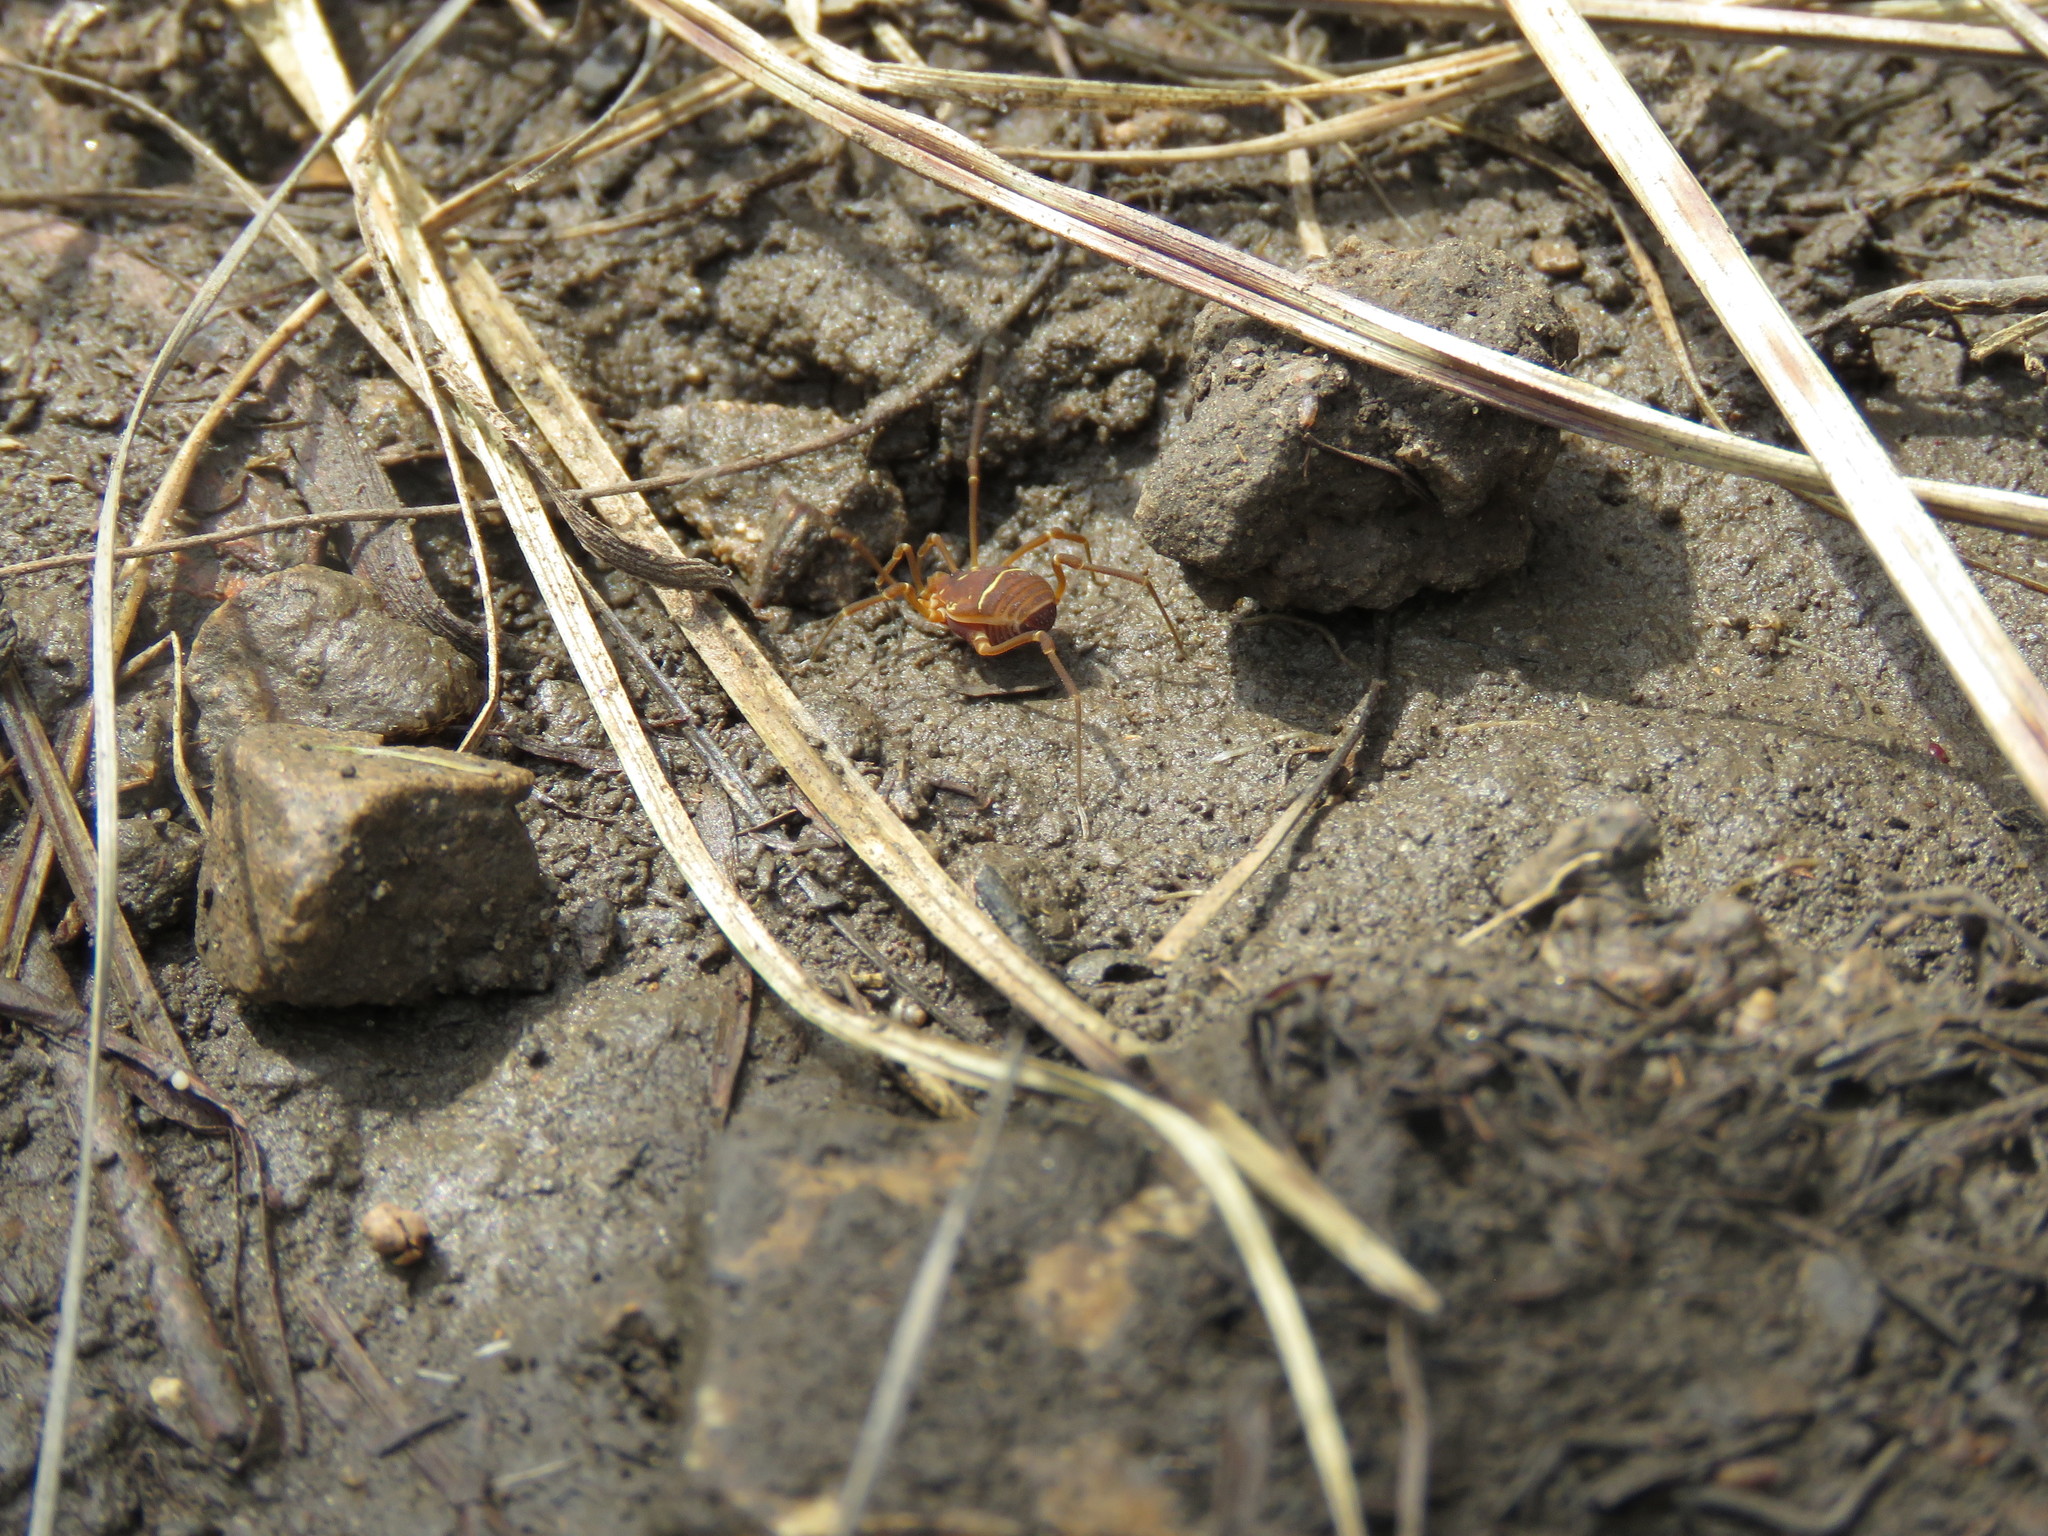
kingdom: Animalia
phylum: Arthropoda
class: Arachnida
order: Opiliones
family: Cosmetidae
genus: Libitioides
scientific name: Libitioides sayi
